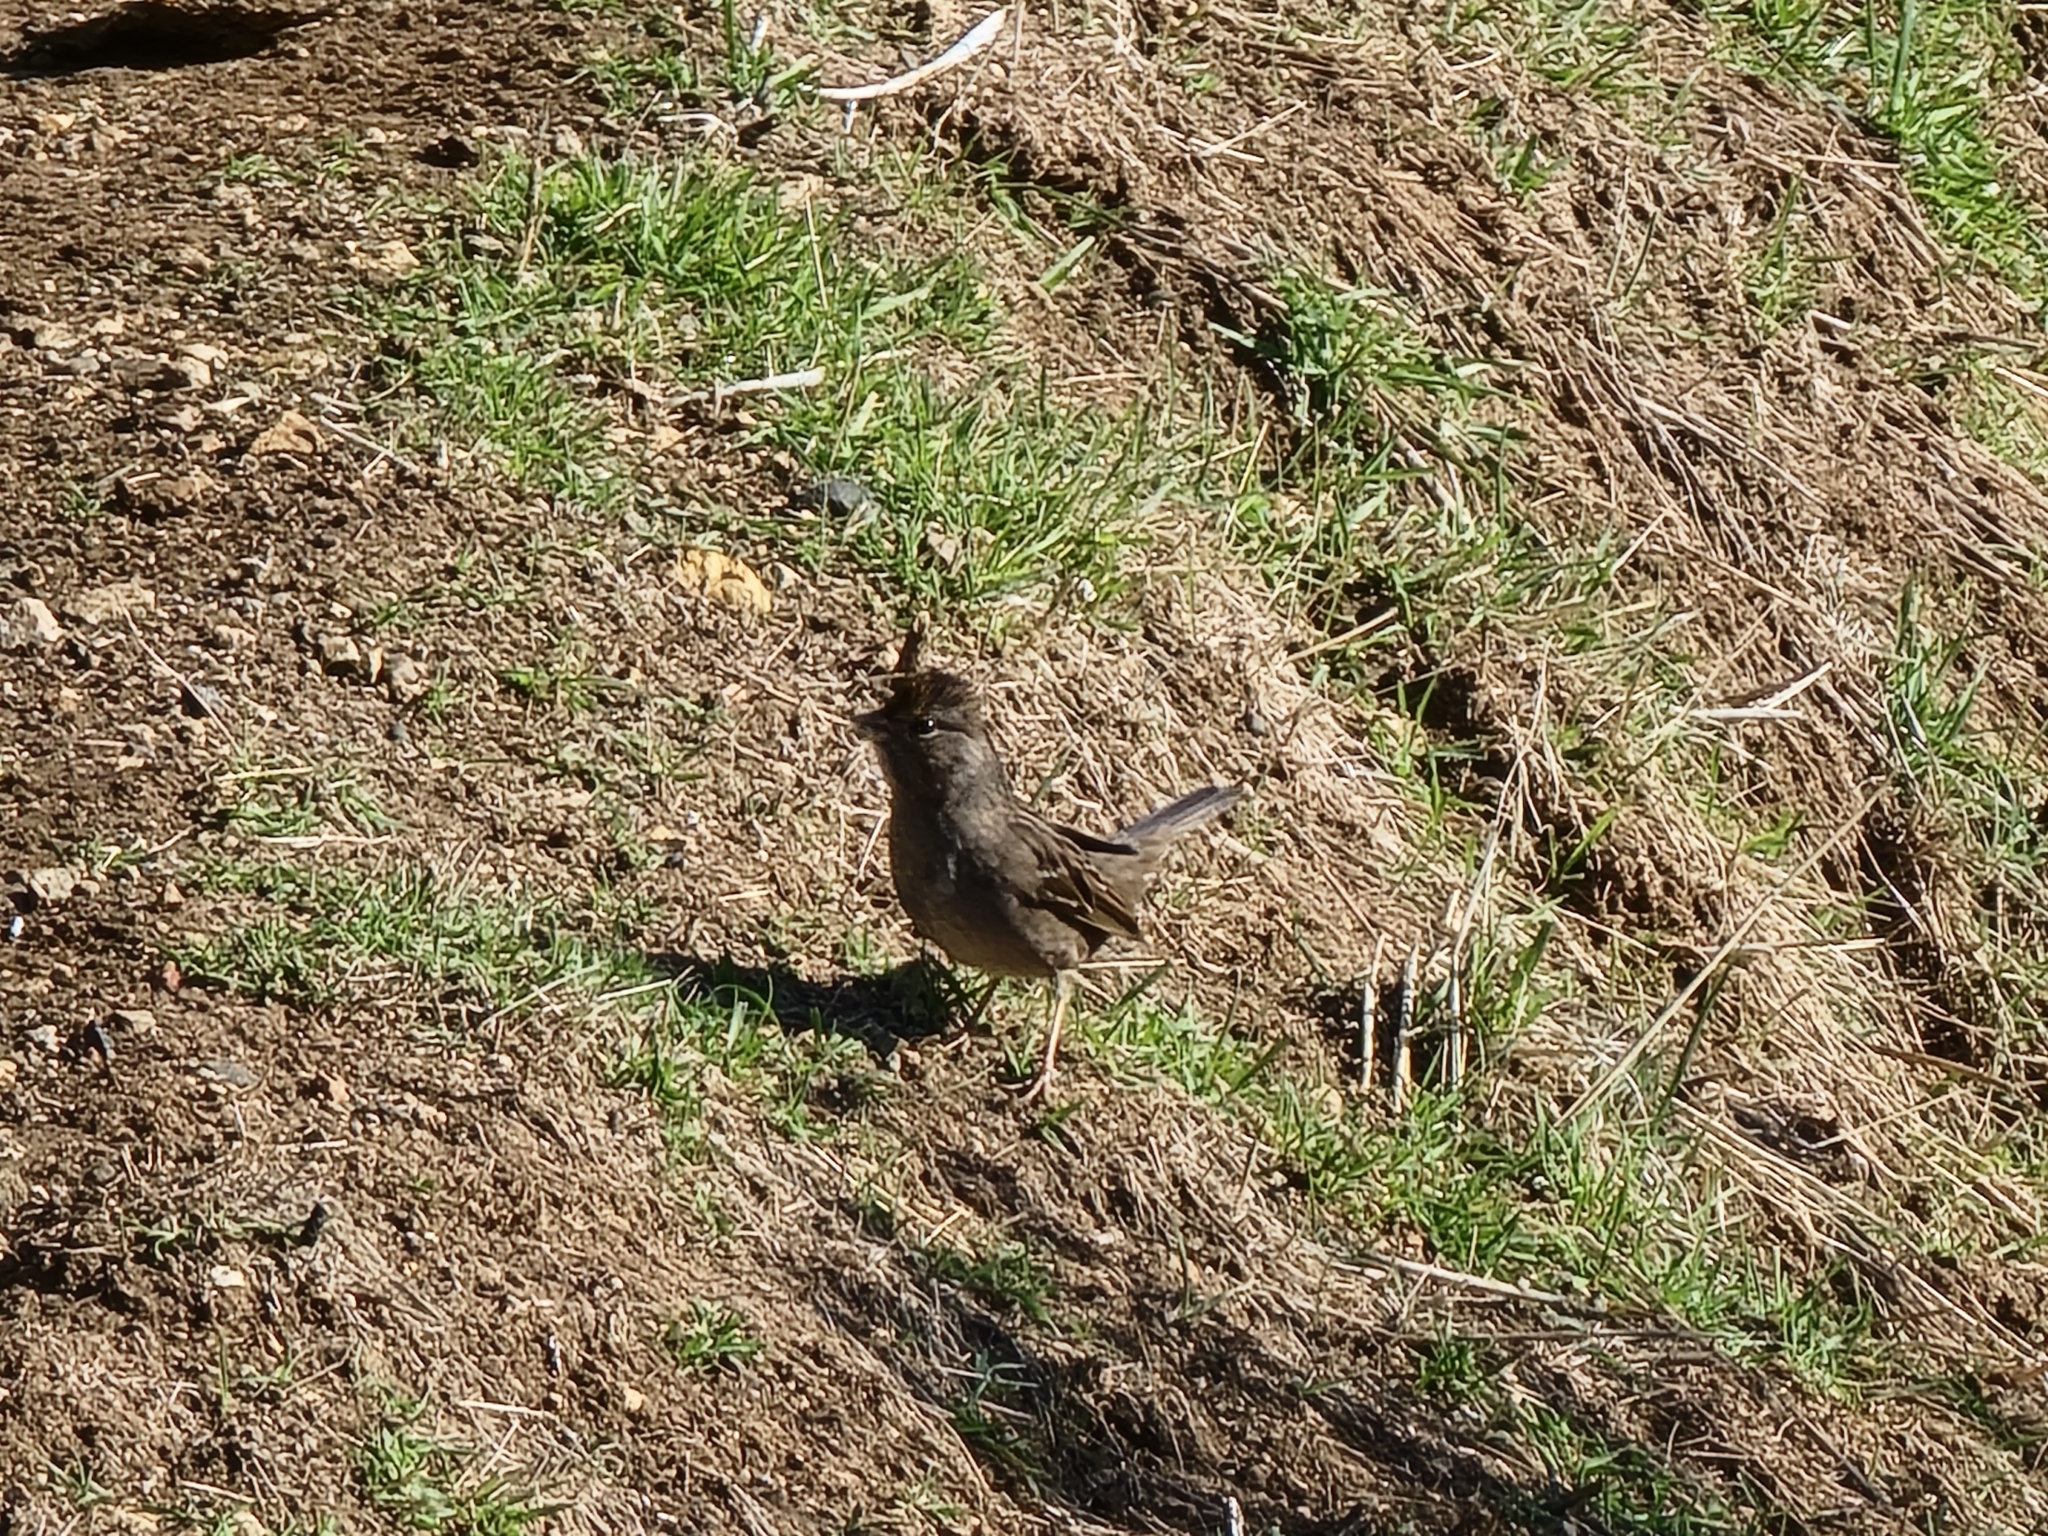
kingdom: Animalia
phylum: Chordata
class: Aves
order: Passeriformes
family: Passerellidae
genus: Zonotrichia
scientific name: Zonotrichia atricapilla
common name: Golden-crowned sparrow
